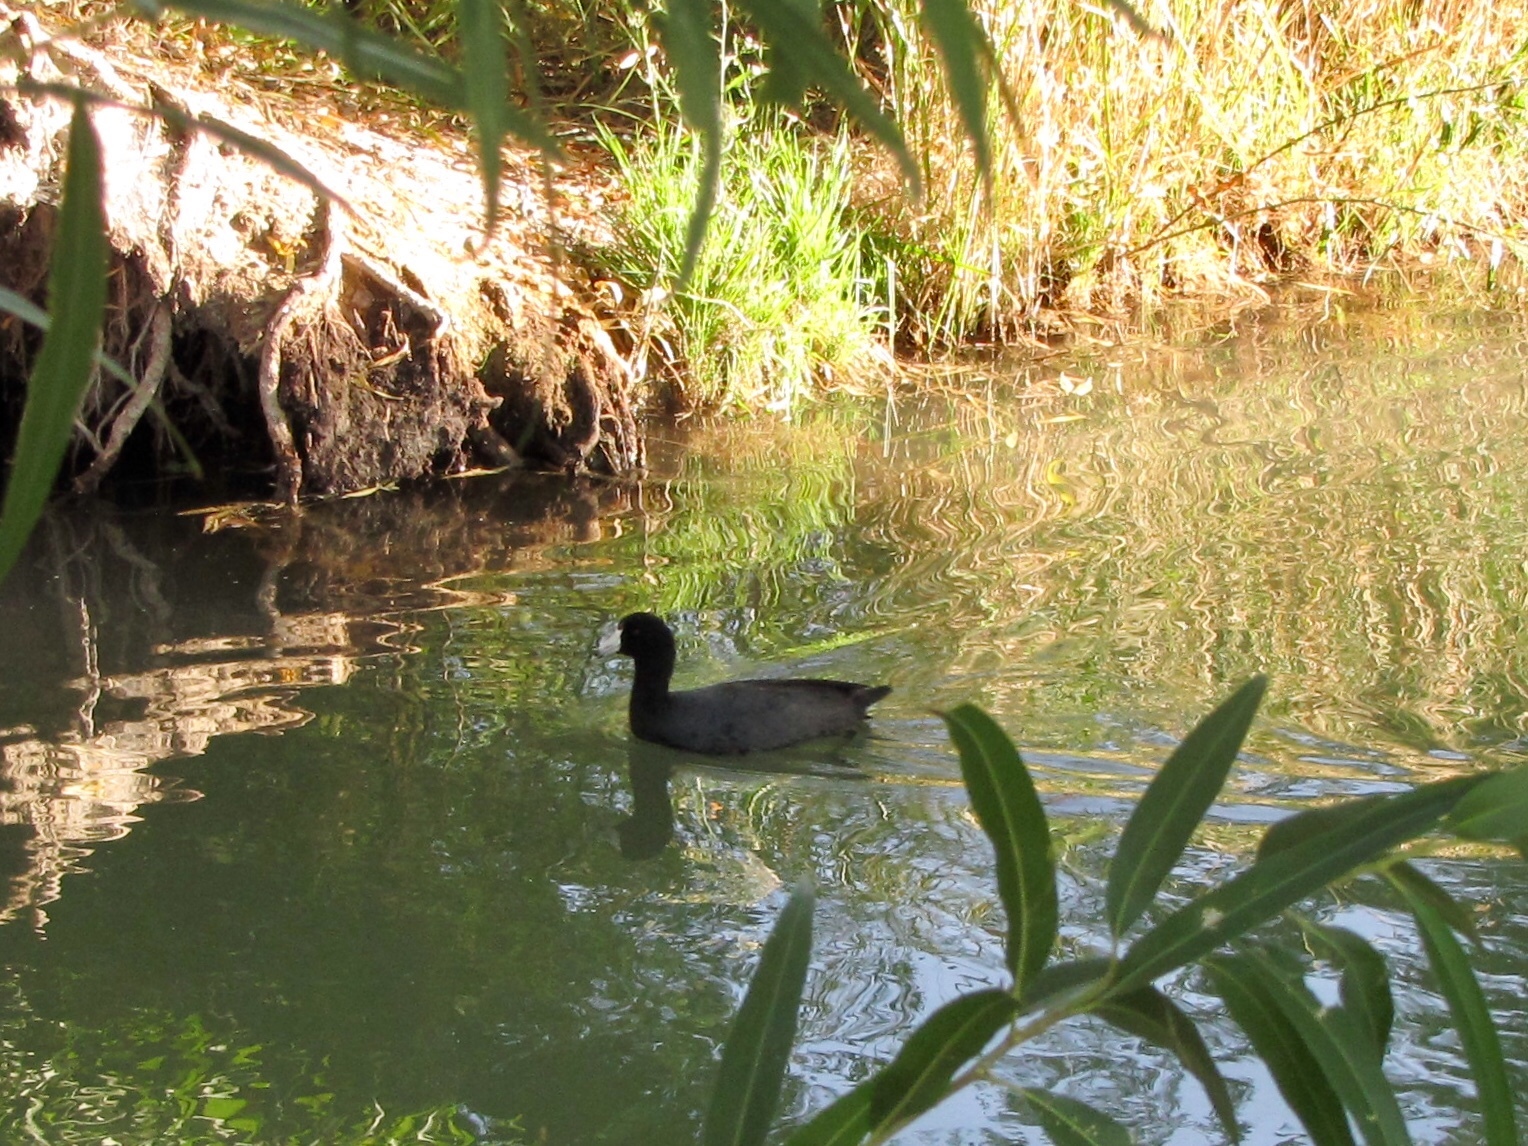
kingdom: Animalia
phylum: Chordata
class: Aves
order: Gruiformes
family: Rallidae
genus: Fulica
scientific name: Fulica americana
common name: American coot
